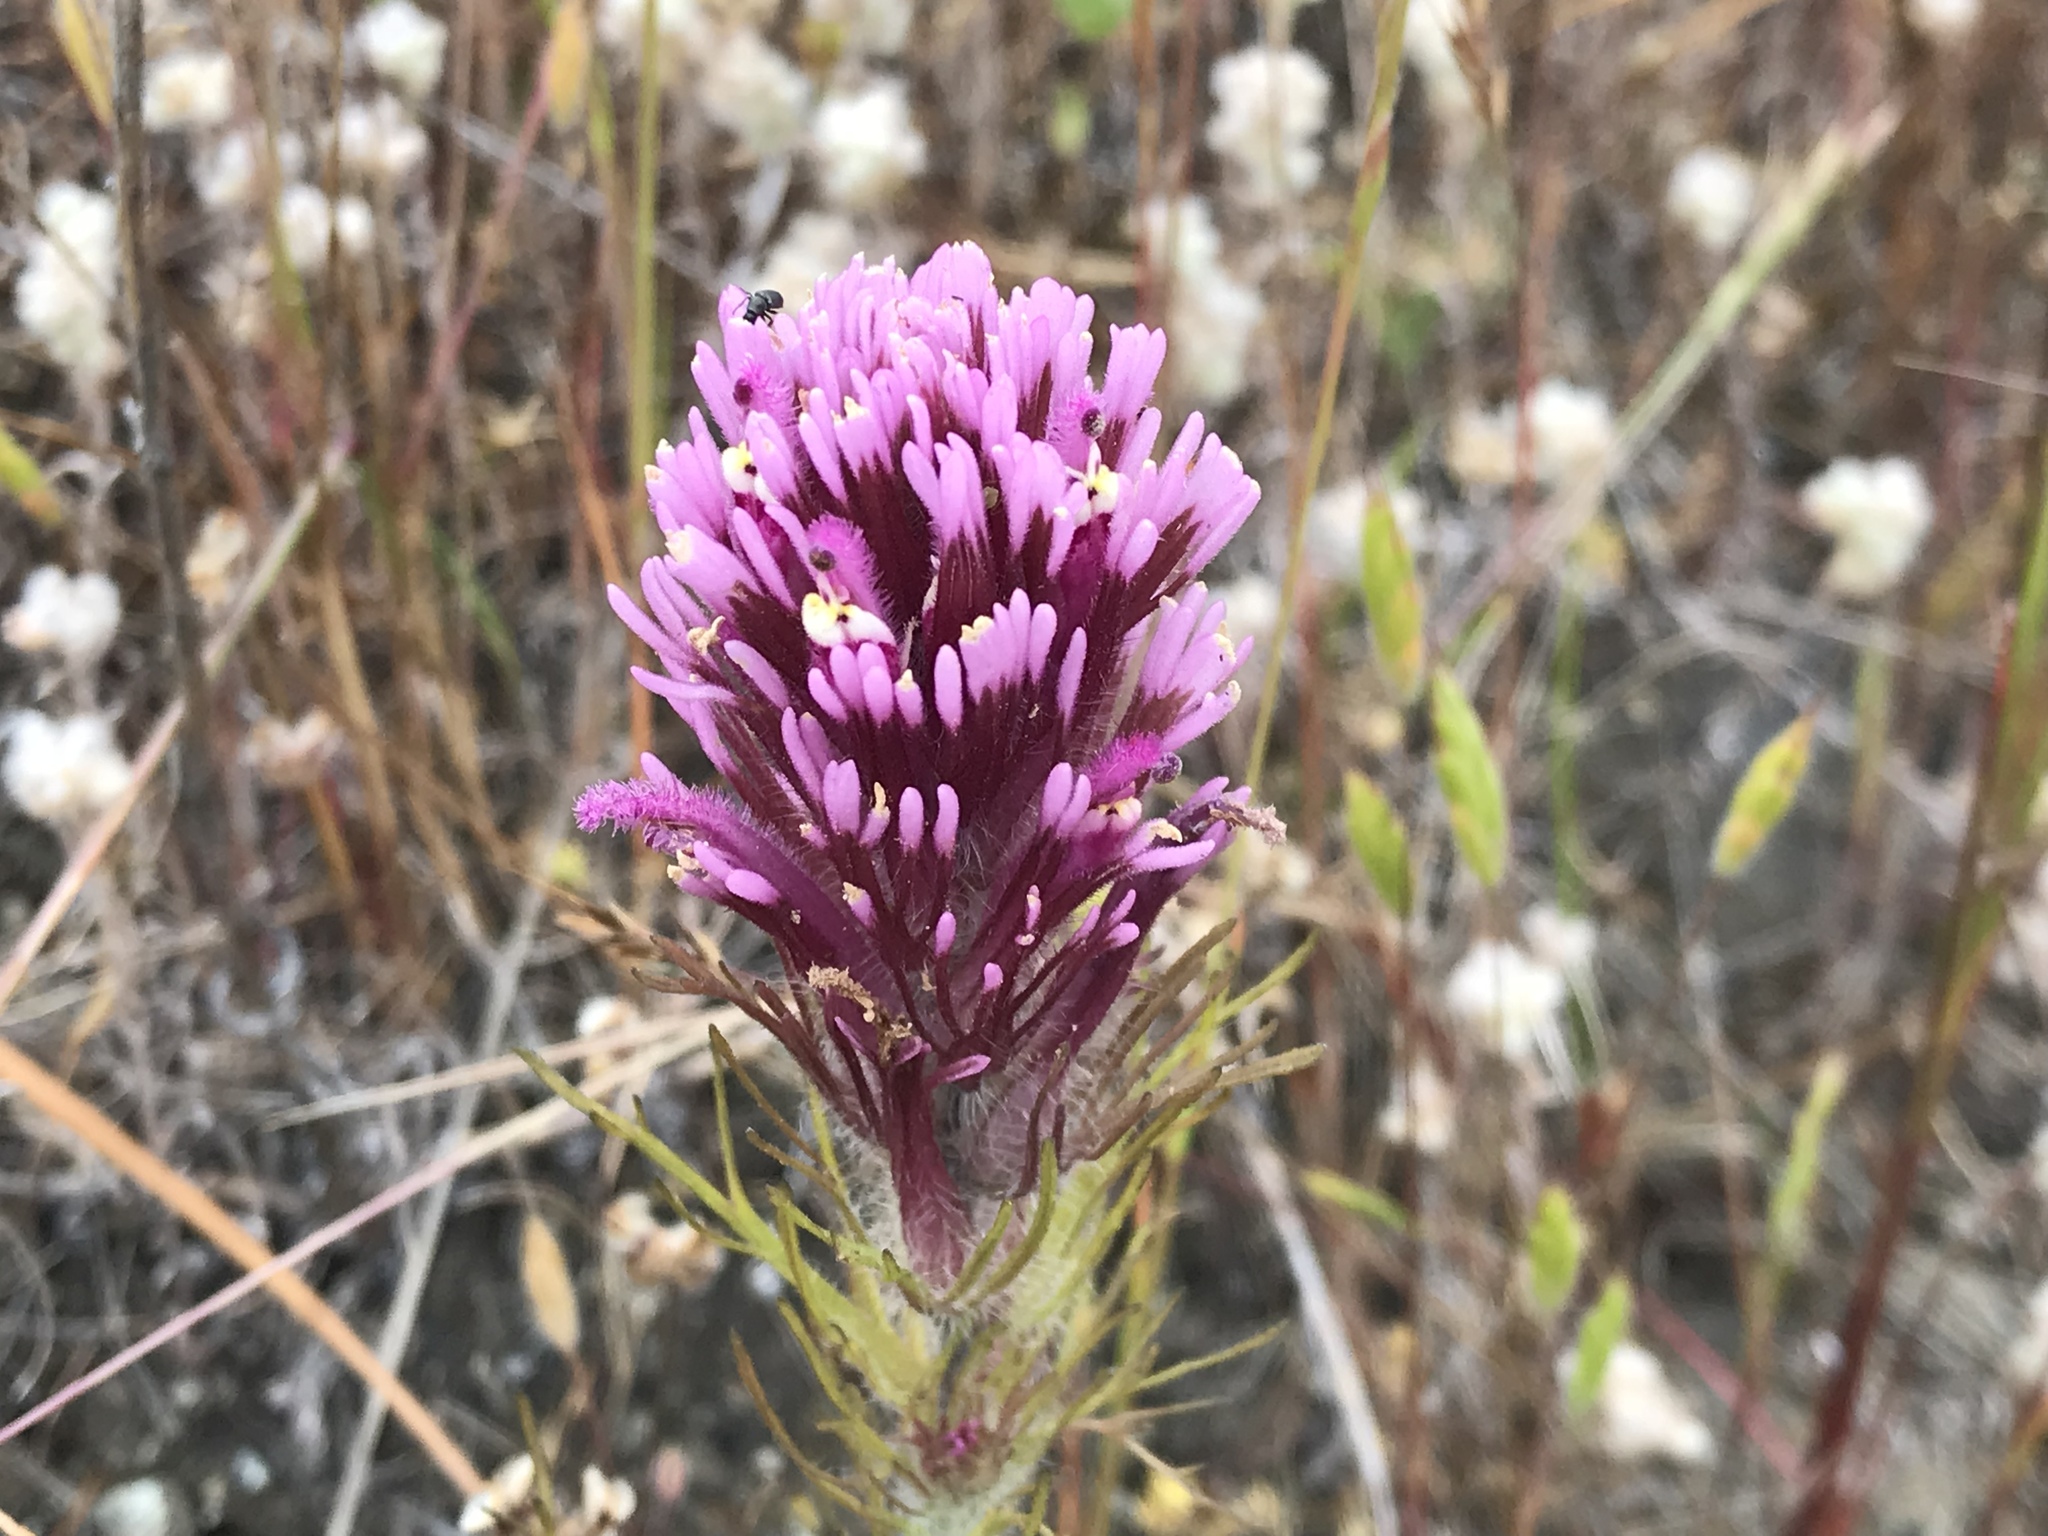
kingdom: Plantae
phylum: Tracheophyta
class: Magnoliopsida
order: Lamiales
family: Orobanchaceae
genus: Castilleja
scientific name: Castilleja exserta
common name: Purple owl-clover
